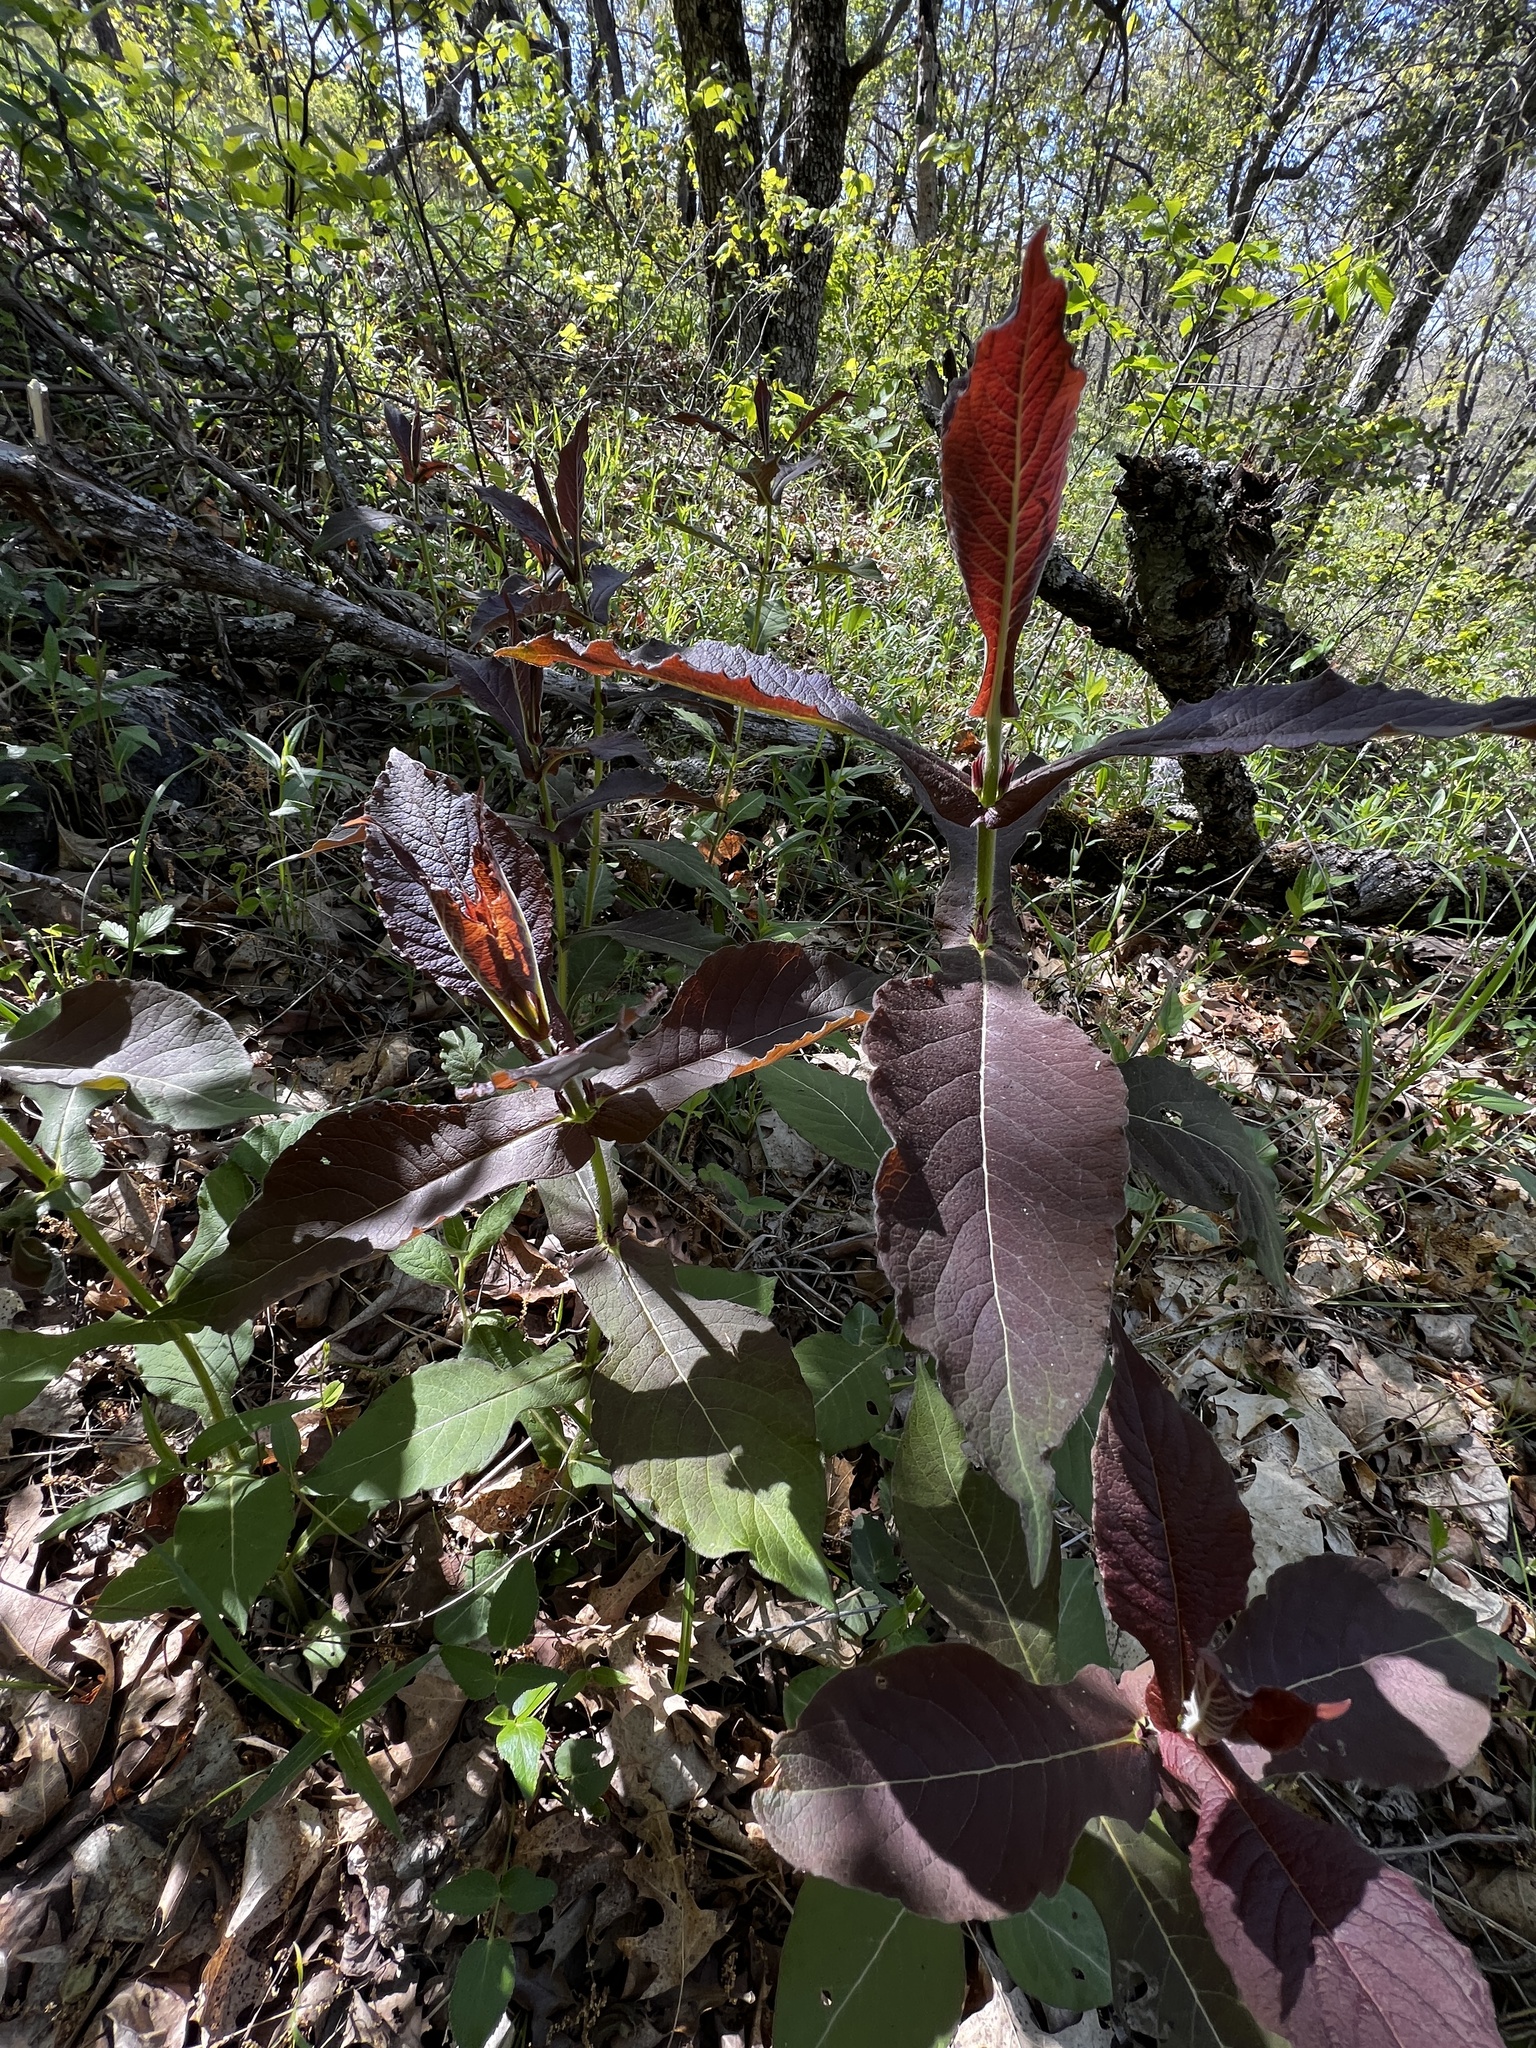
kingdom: Plantae
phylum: Tracheophyta
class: Magnoliopsida
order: Dipsacales
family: Caprifoliaceae
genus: Triosteum
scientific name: Triosteum aurantiacum
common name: Coffee tinker's-weed
